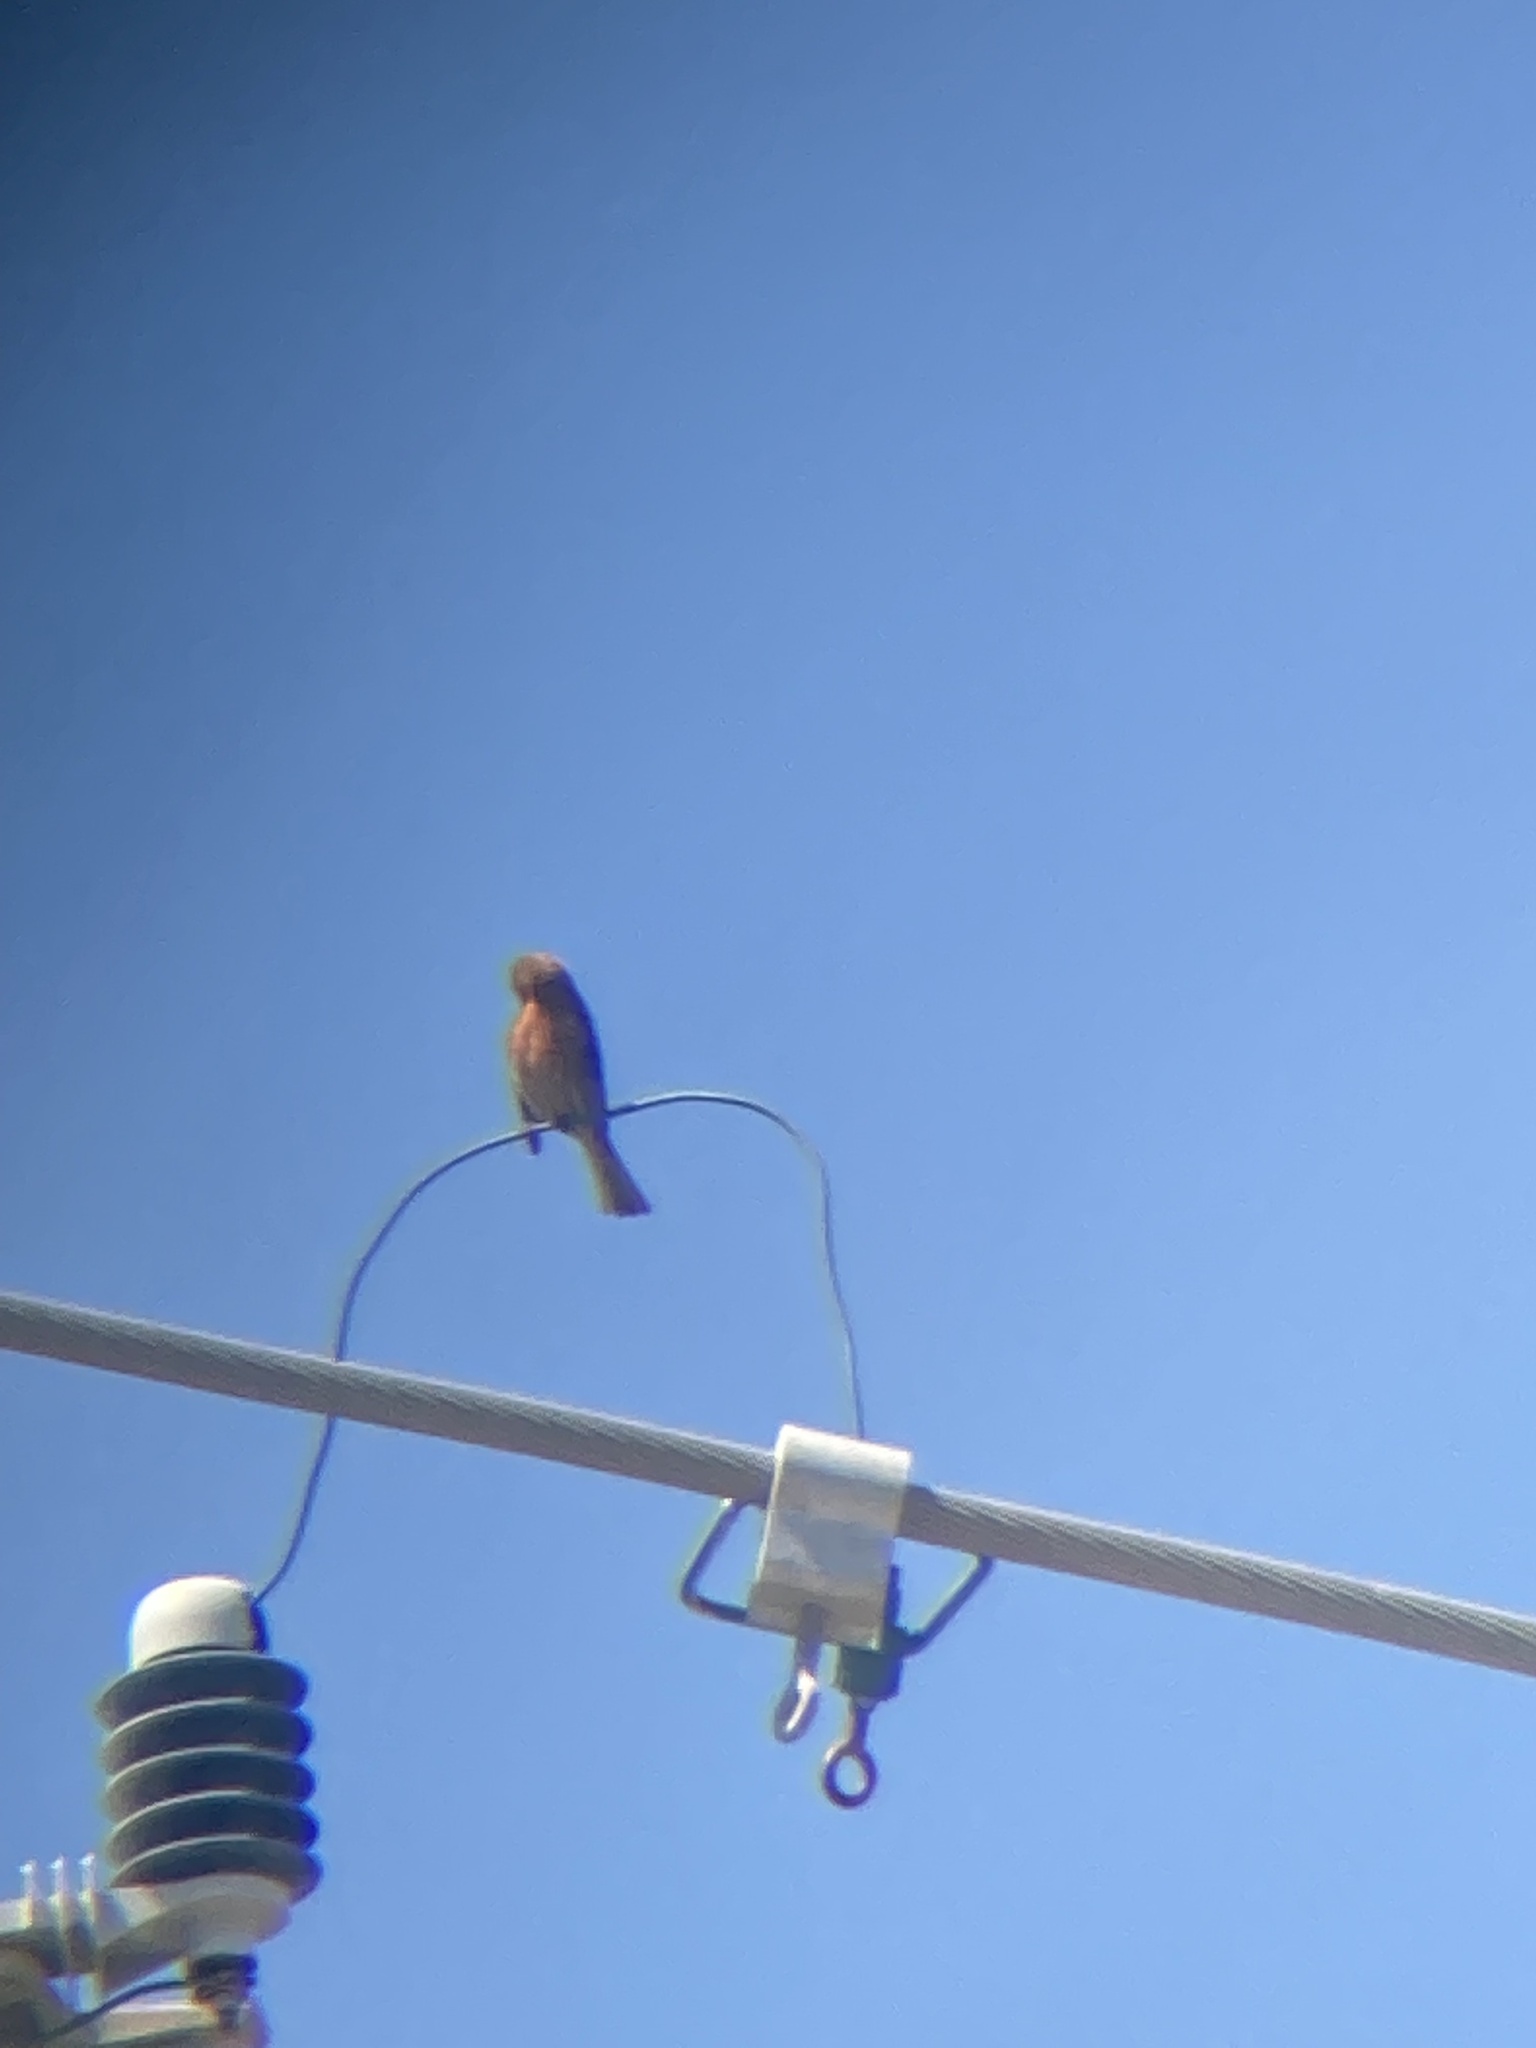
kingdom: Animalia
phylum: Chordata
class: Aves
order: Passeriformes
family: Fringillidae
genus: Haemorhous
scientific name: Haemorhous mexicanus
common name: House finch
